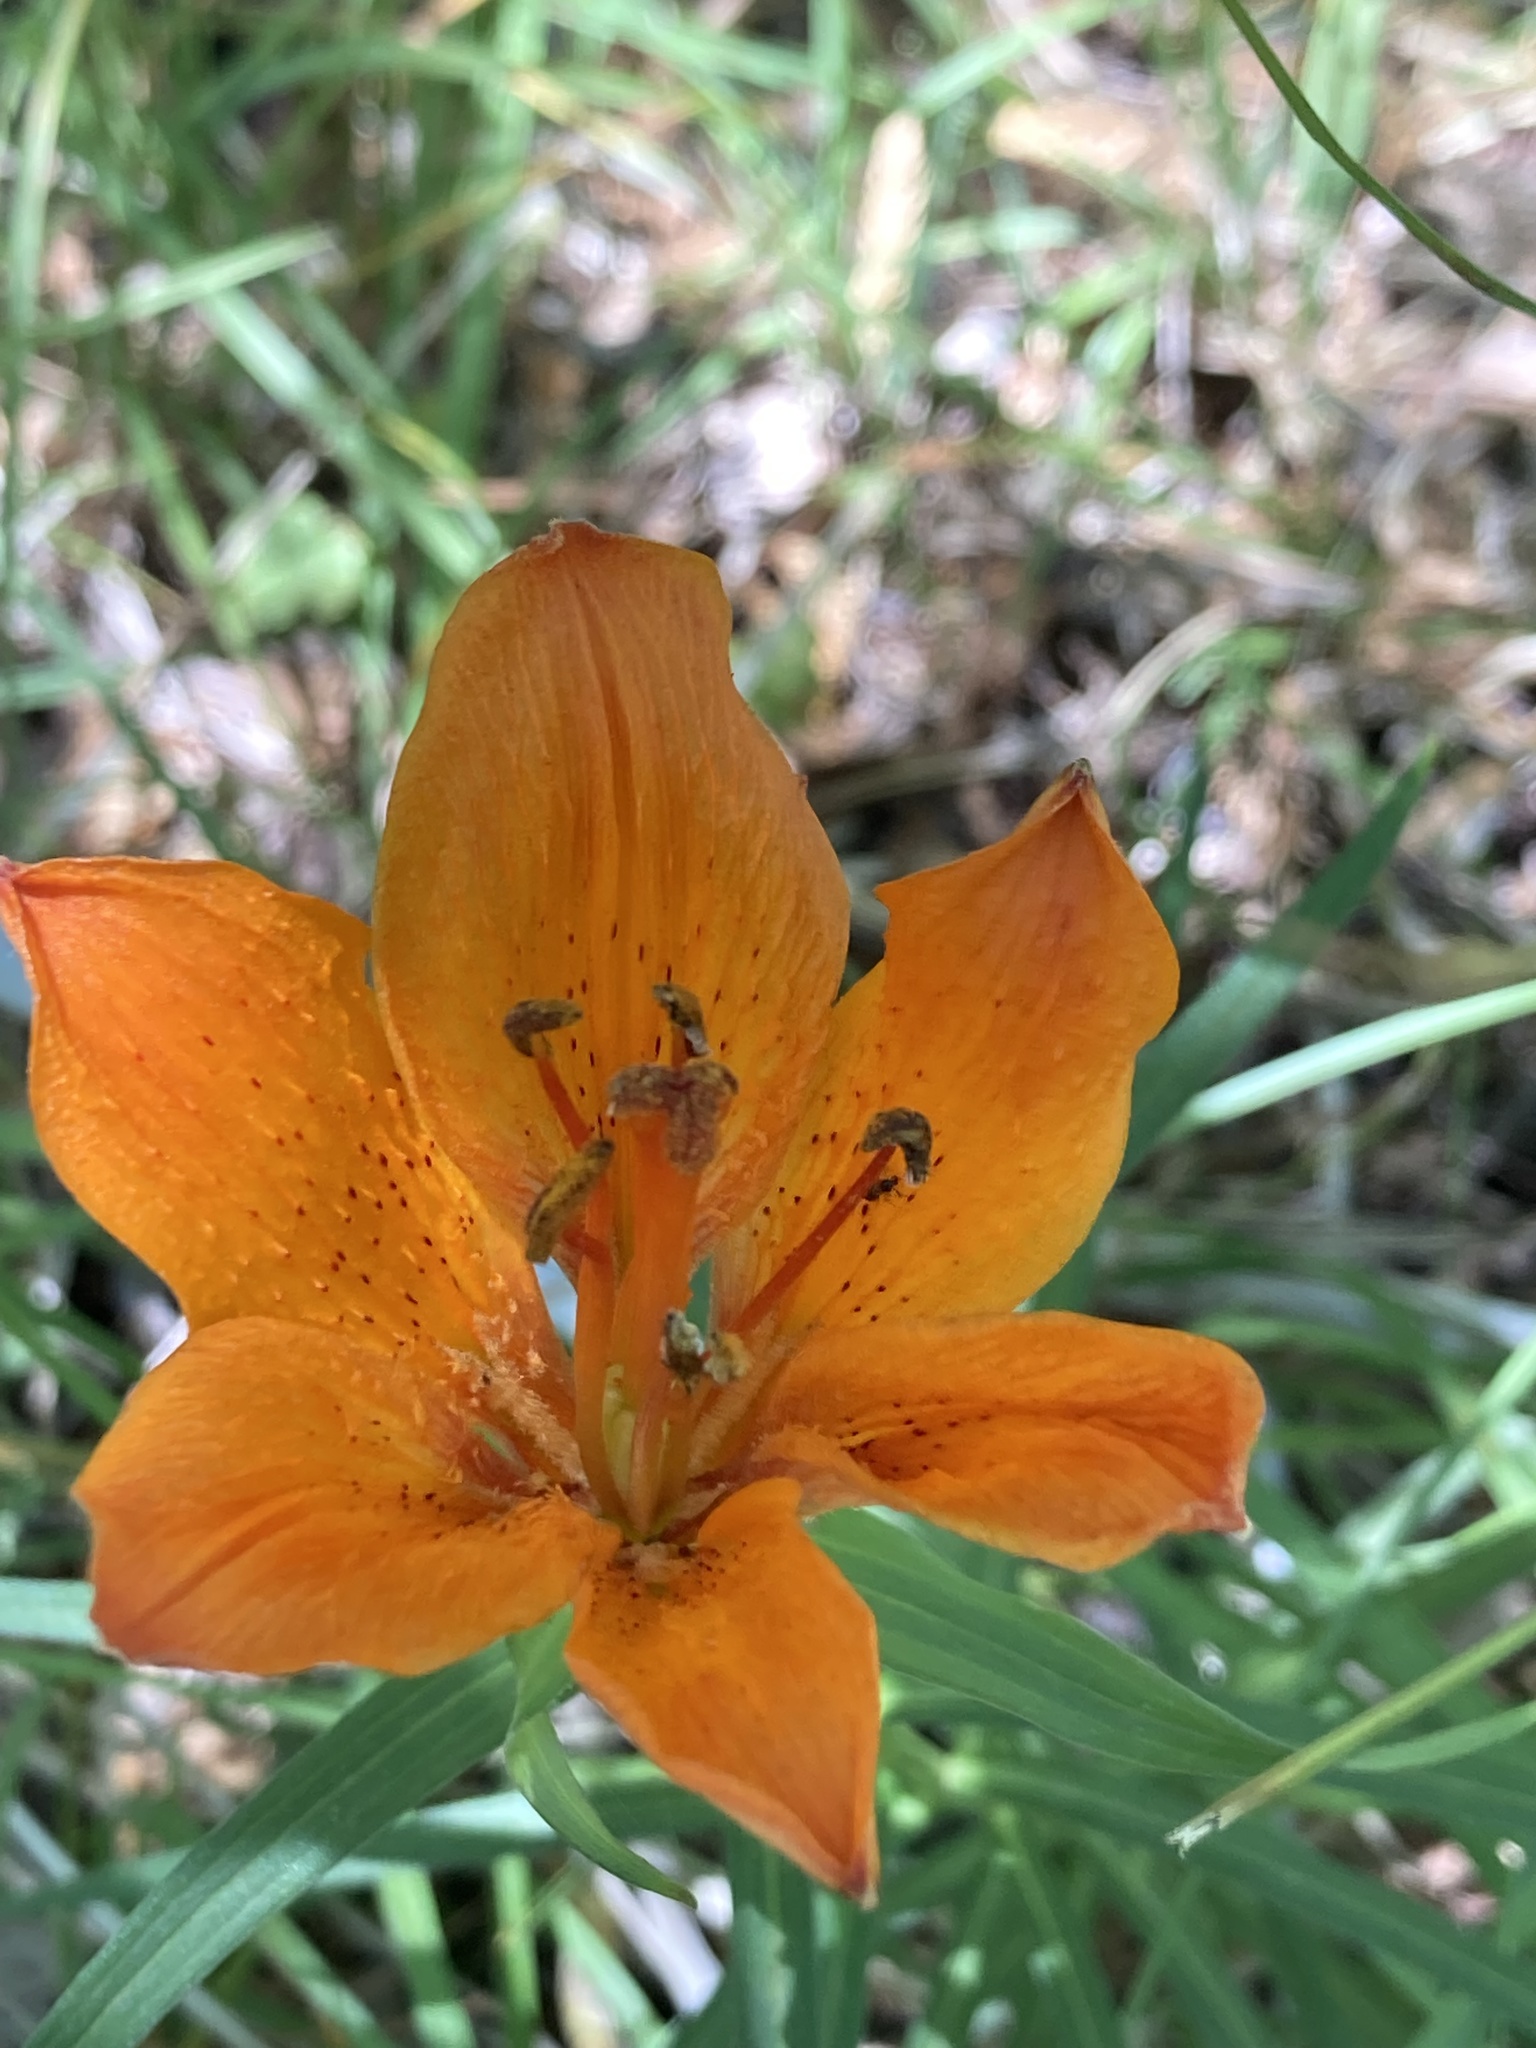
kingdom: Plantae
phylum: Tracheophyta
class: Liliopsida
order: Liliales
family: Liliaceae
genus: Lilium
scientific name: Lilium bulbiferum
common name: Orange lily
